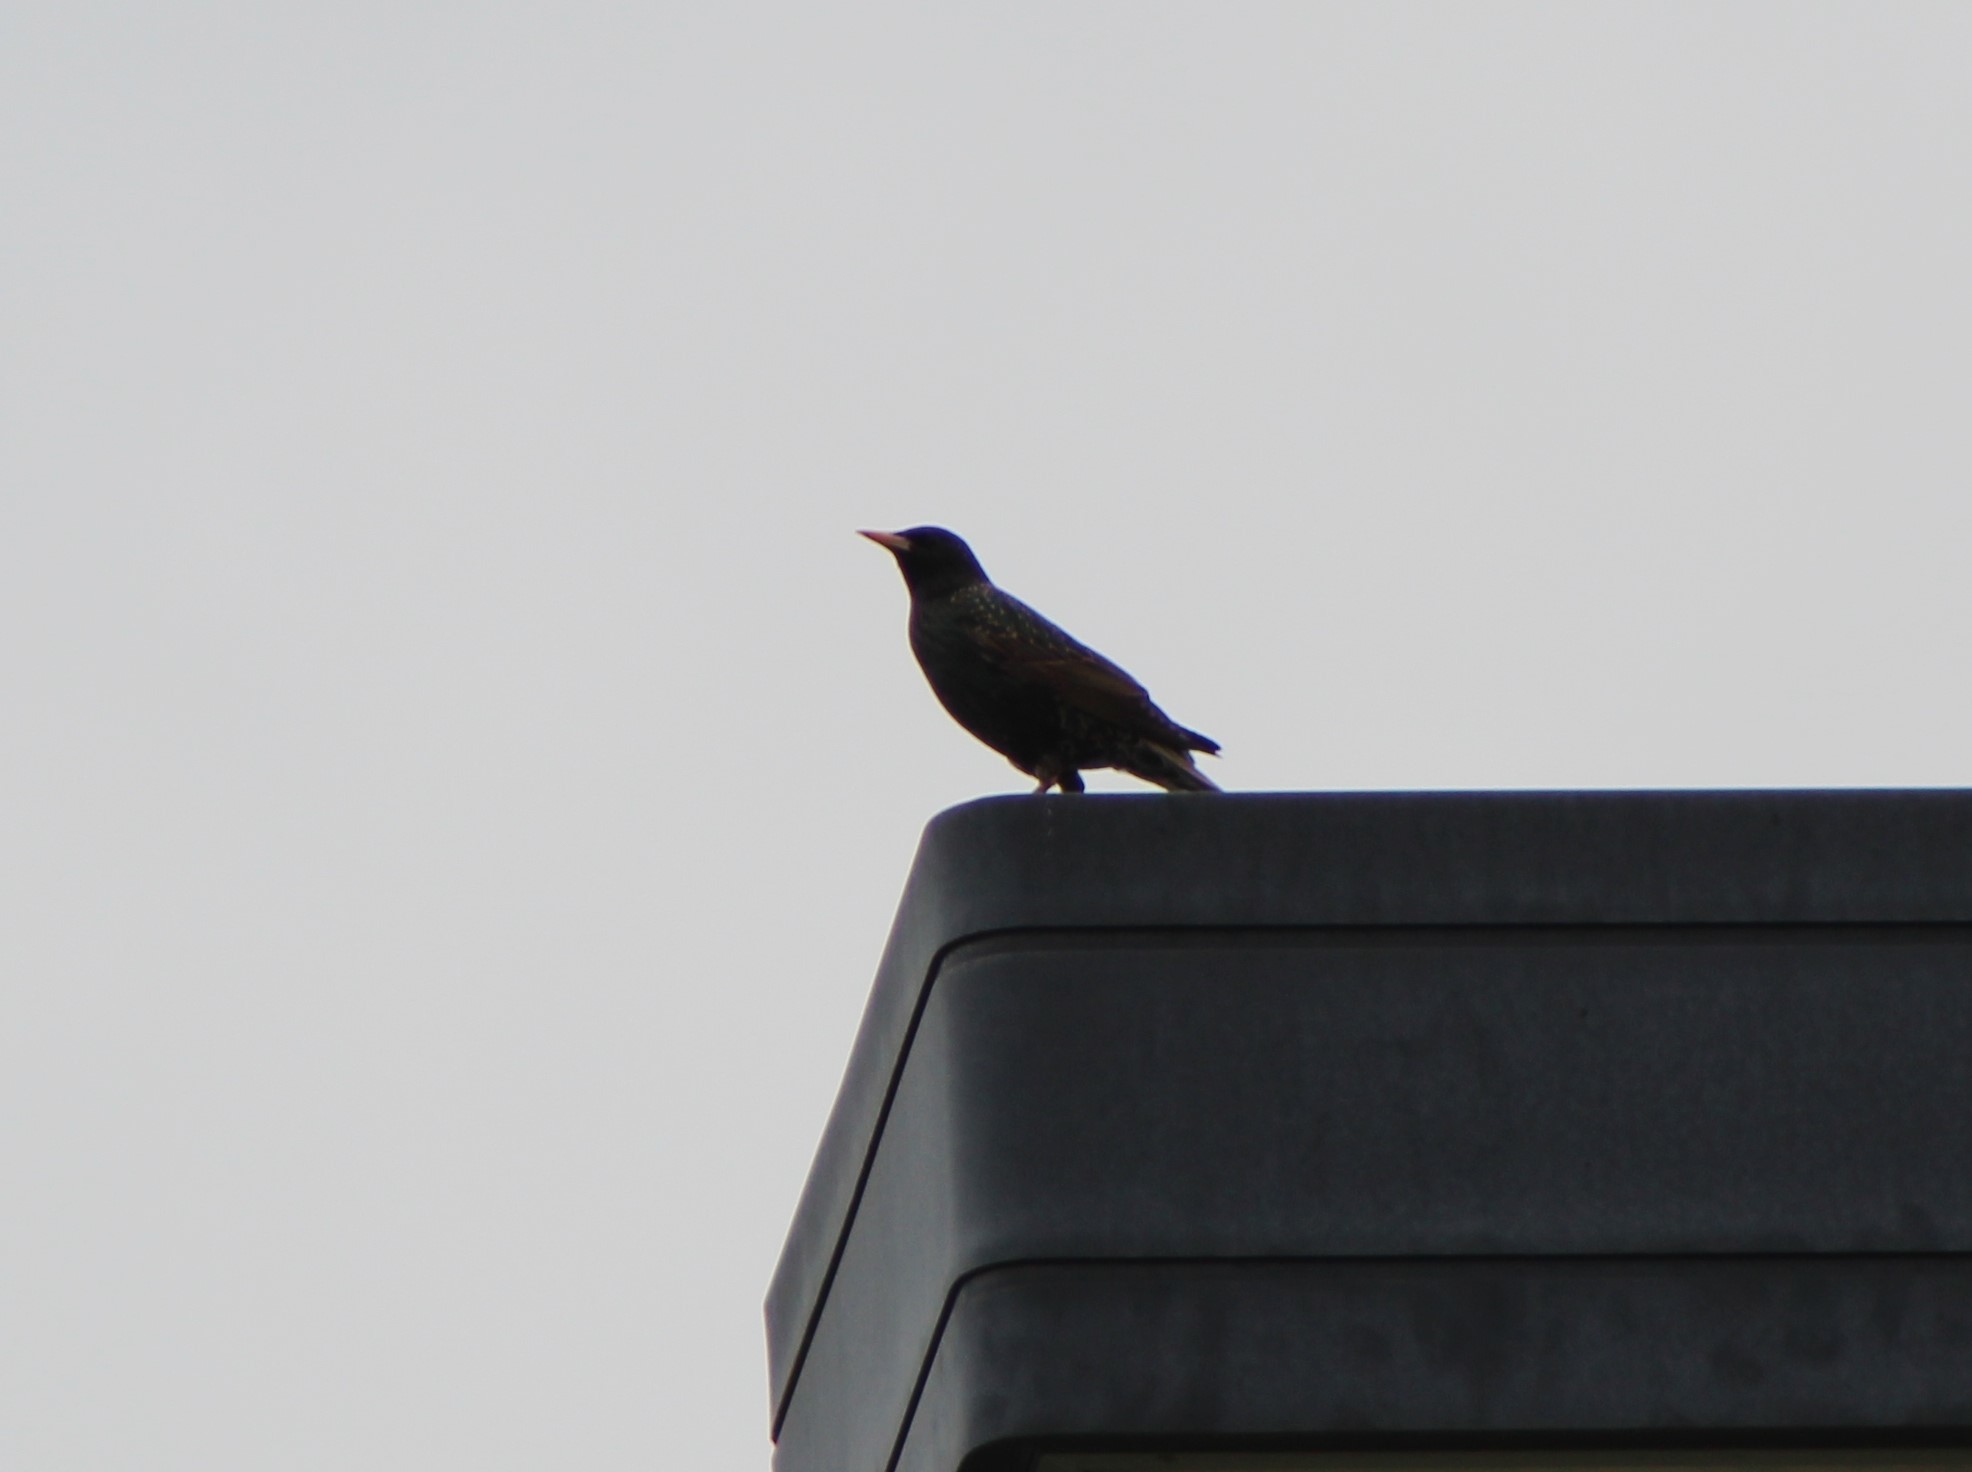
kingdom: Animalia
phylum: Chordata
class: Aves
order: Passeriformes
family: Sturnidae
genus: Sturnus
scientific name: Sturnus vulgaris
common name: Common starling
